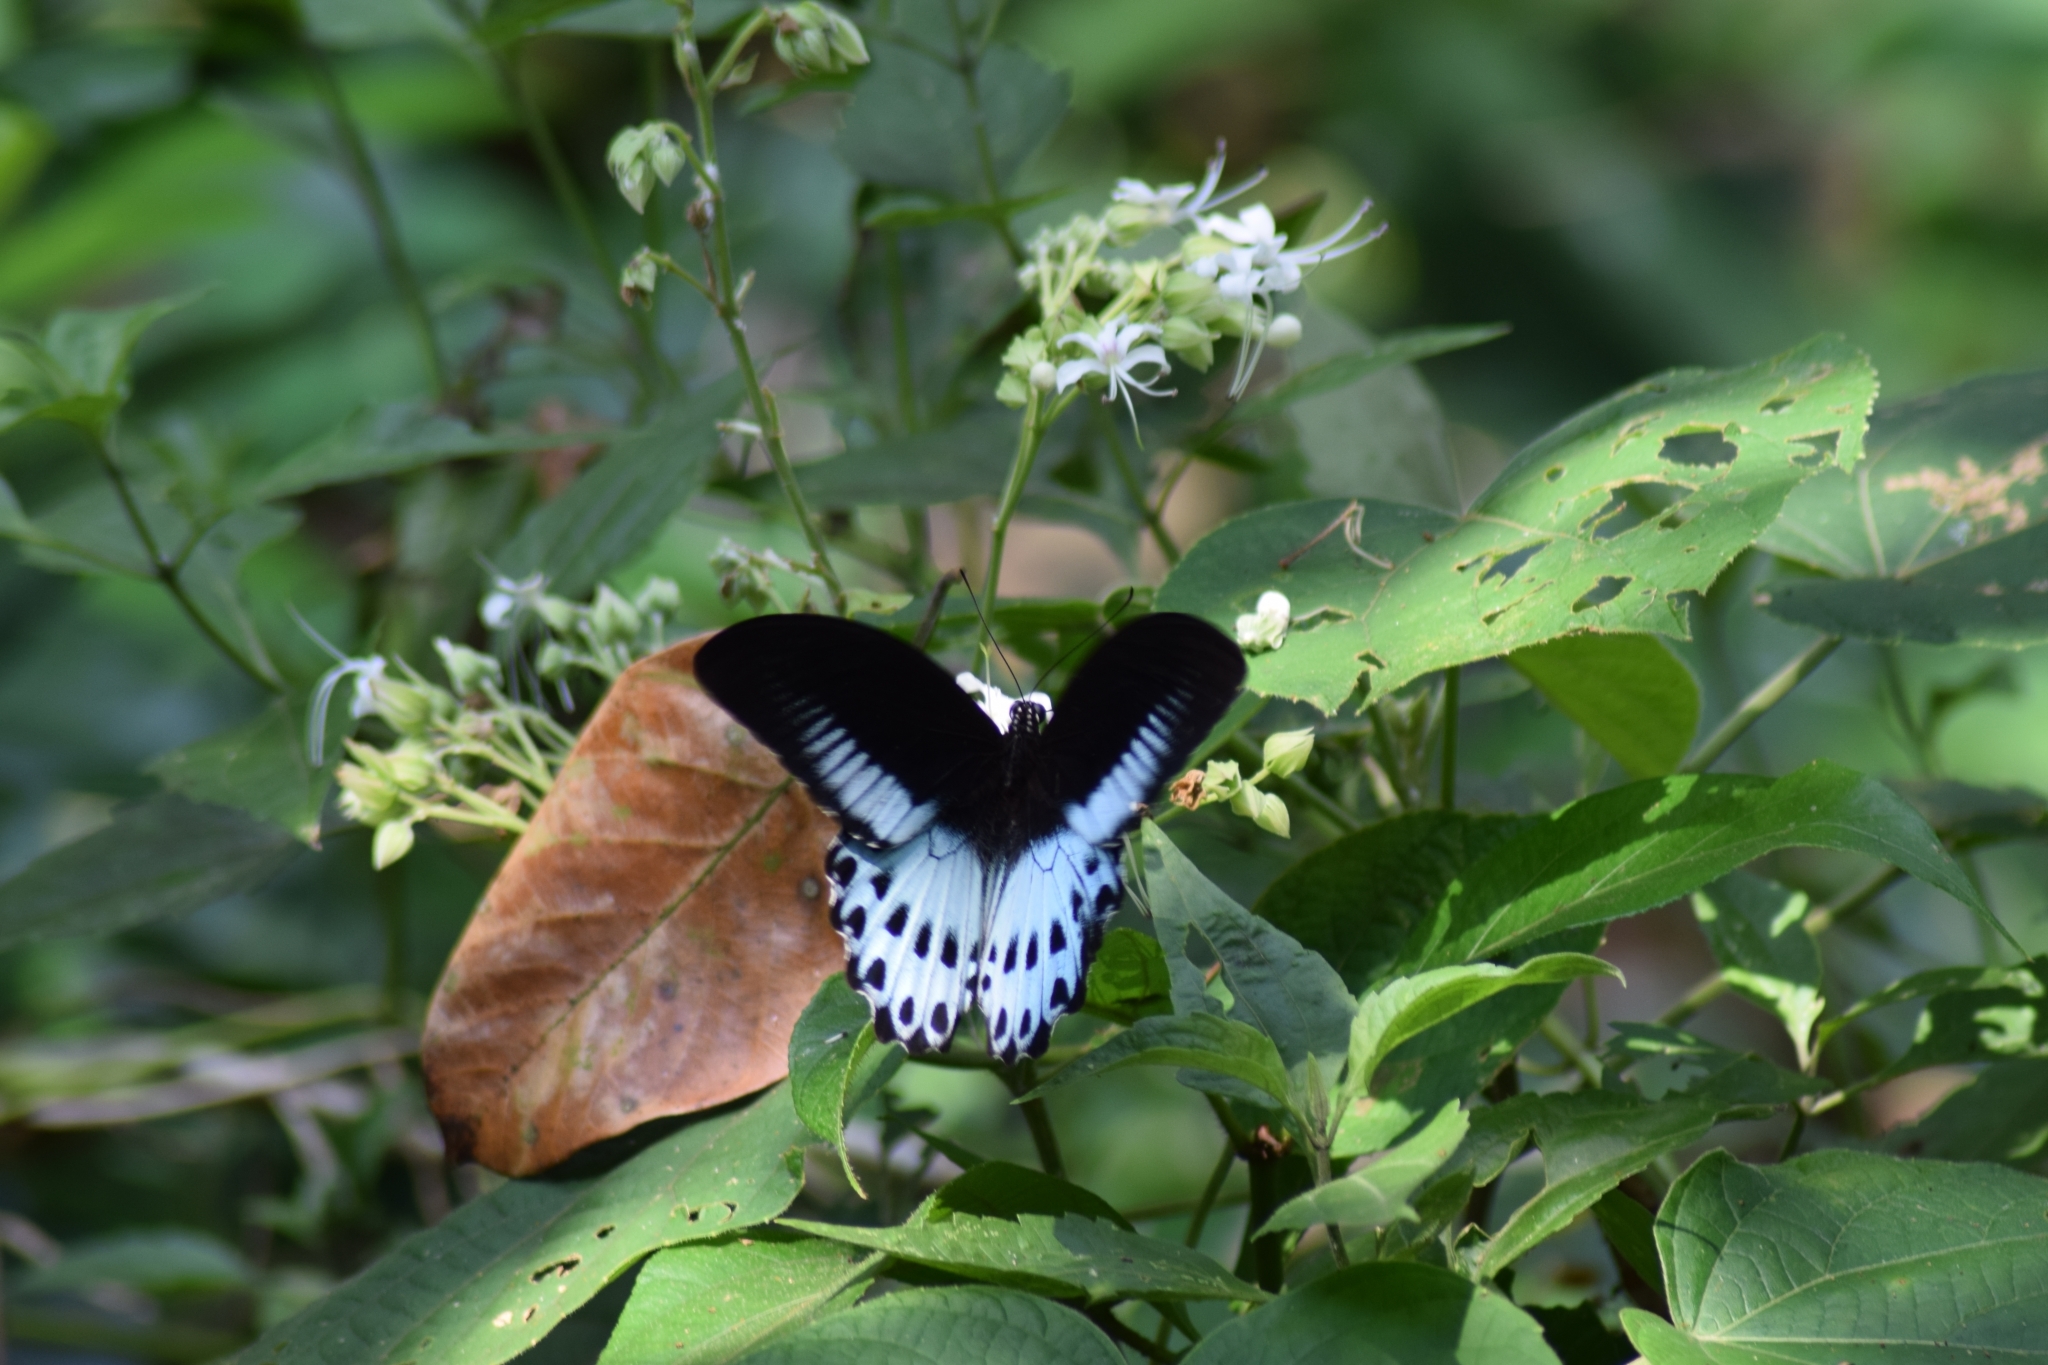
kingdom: Animalia
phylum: Arthropoda
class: Insecta
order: Lepidoptera
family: Papilionidae
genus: Papilio
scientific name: Papilio memnon
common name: Great mormon
